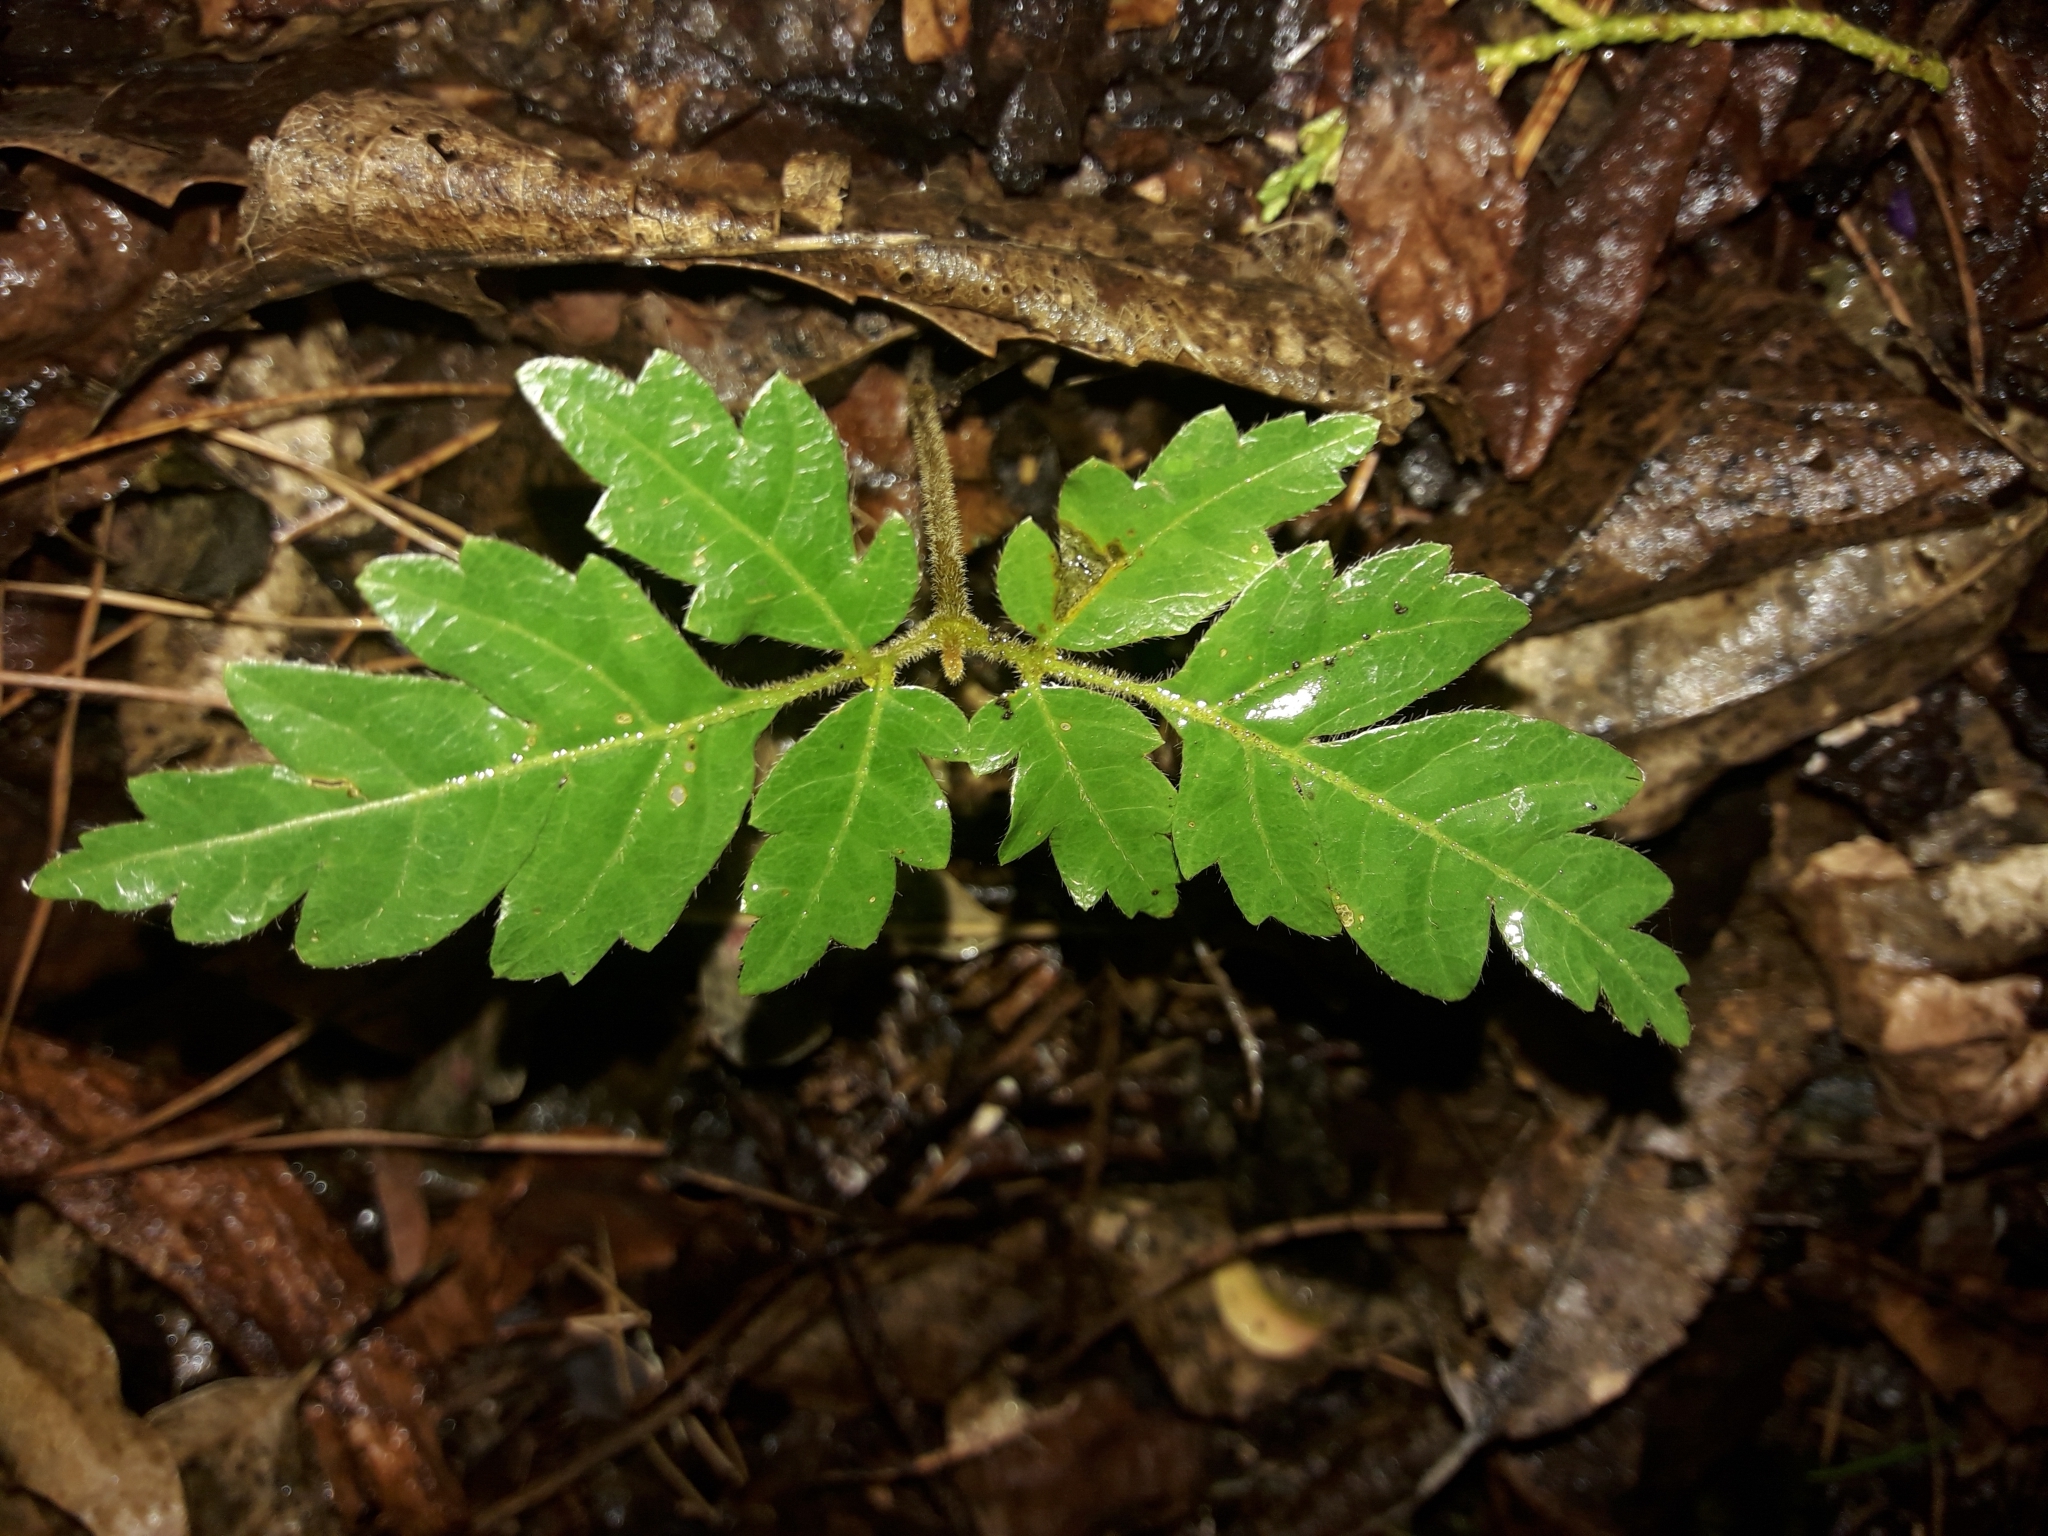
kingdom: Plantae
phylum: Tracheophyta
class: Magnoliopsida
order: Sapindales
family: Sapindaceae
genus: Alectryon
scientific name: Alectryon excelsus
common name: Three kings titoki
